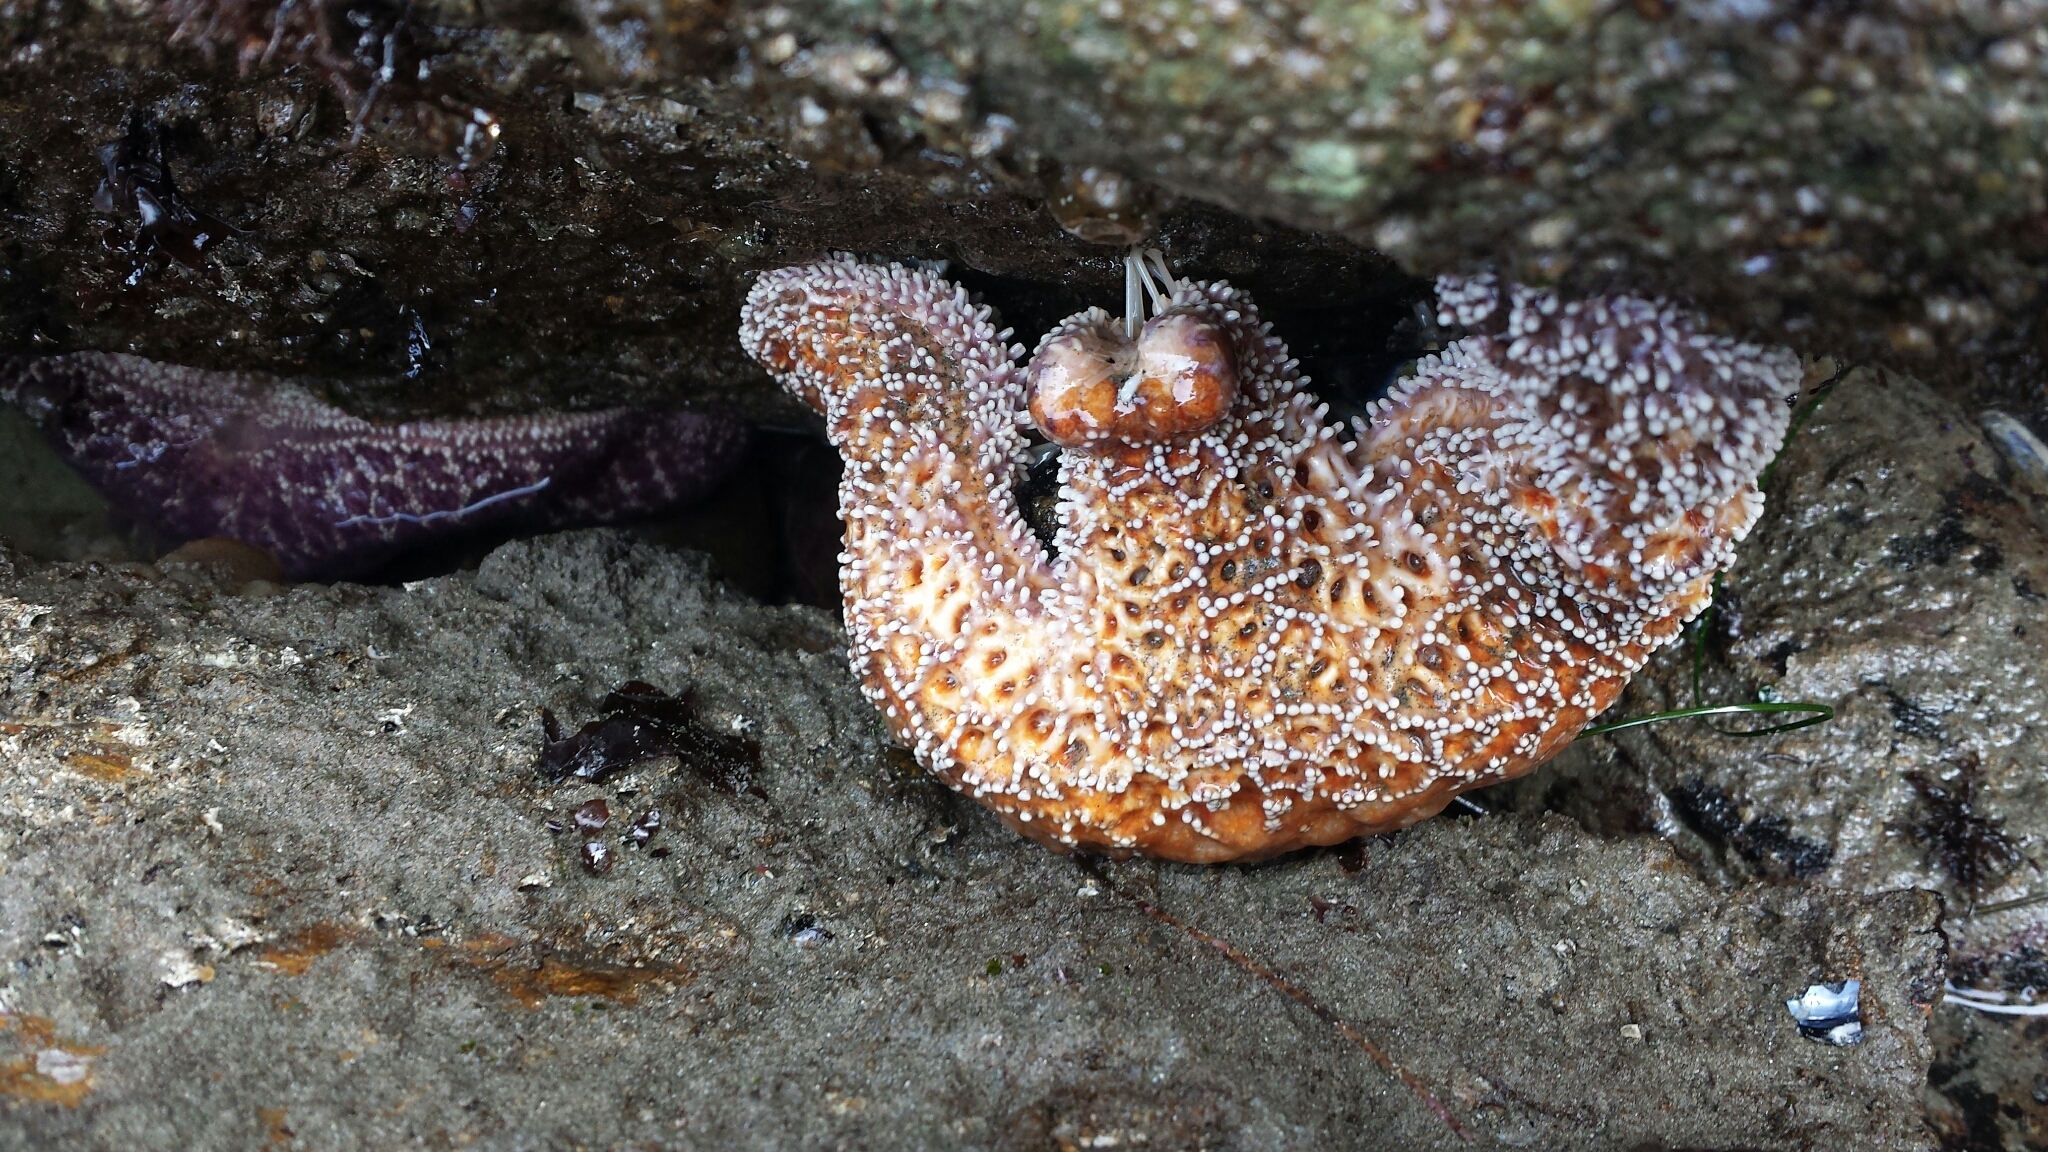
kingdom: Animalia
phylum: Echinodermata
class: Asteroidea
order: Forcipulatida
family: Asteriidae
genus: Pisaster
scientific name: Pisaster ochraceus
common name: Ochre stars
